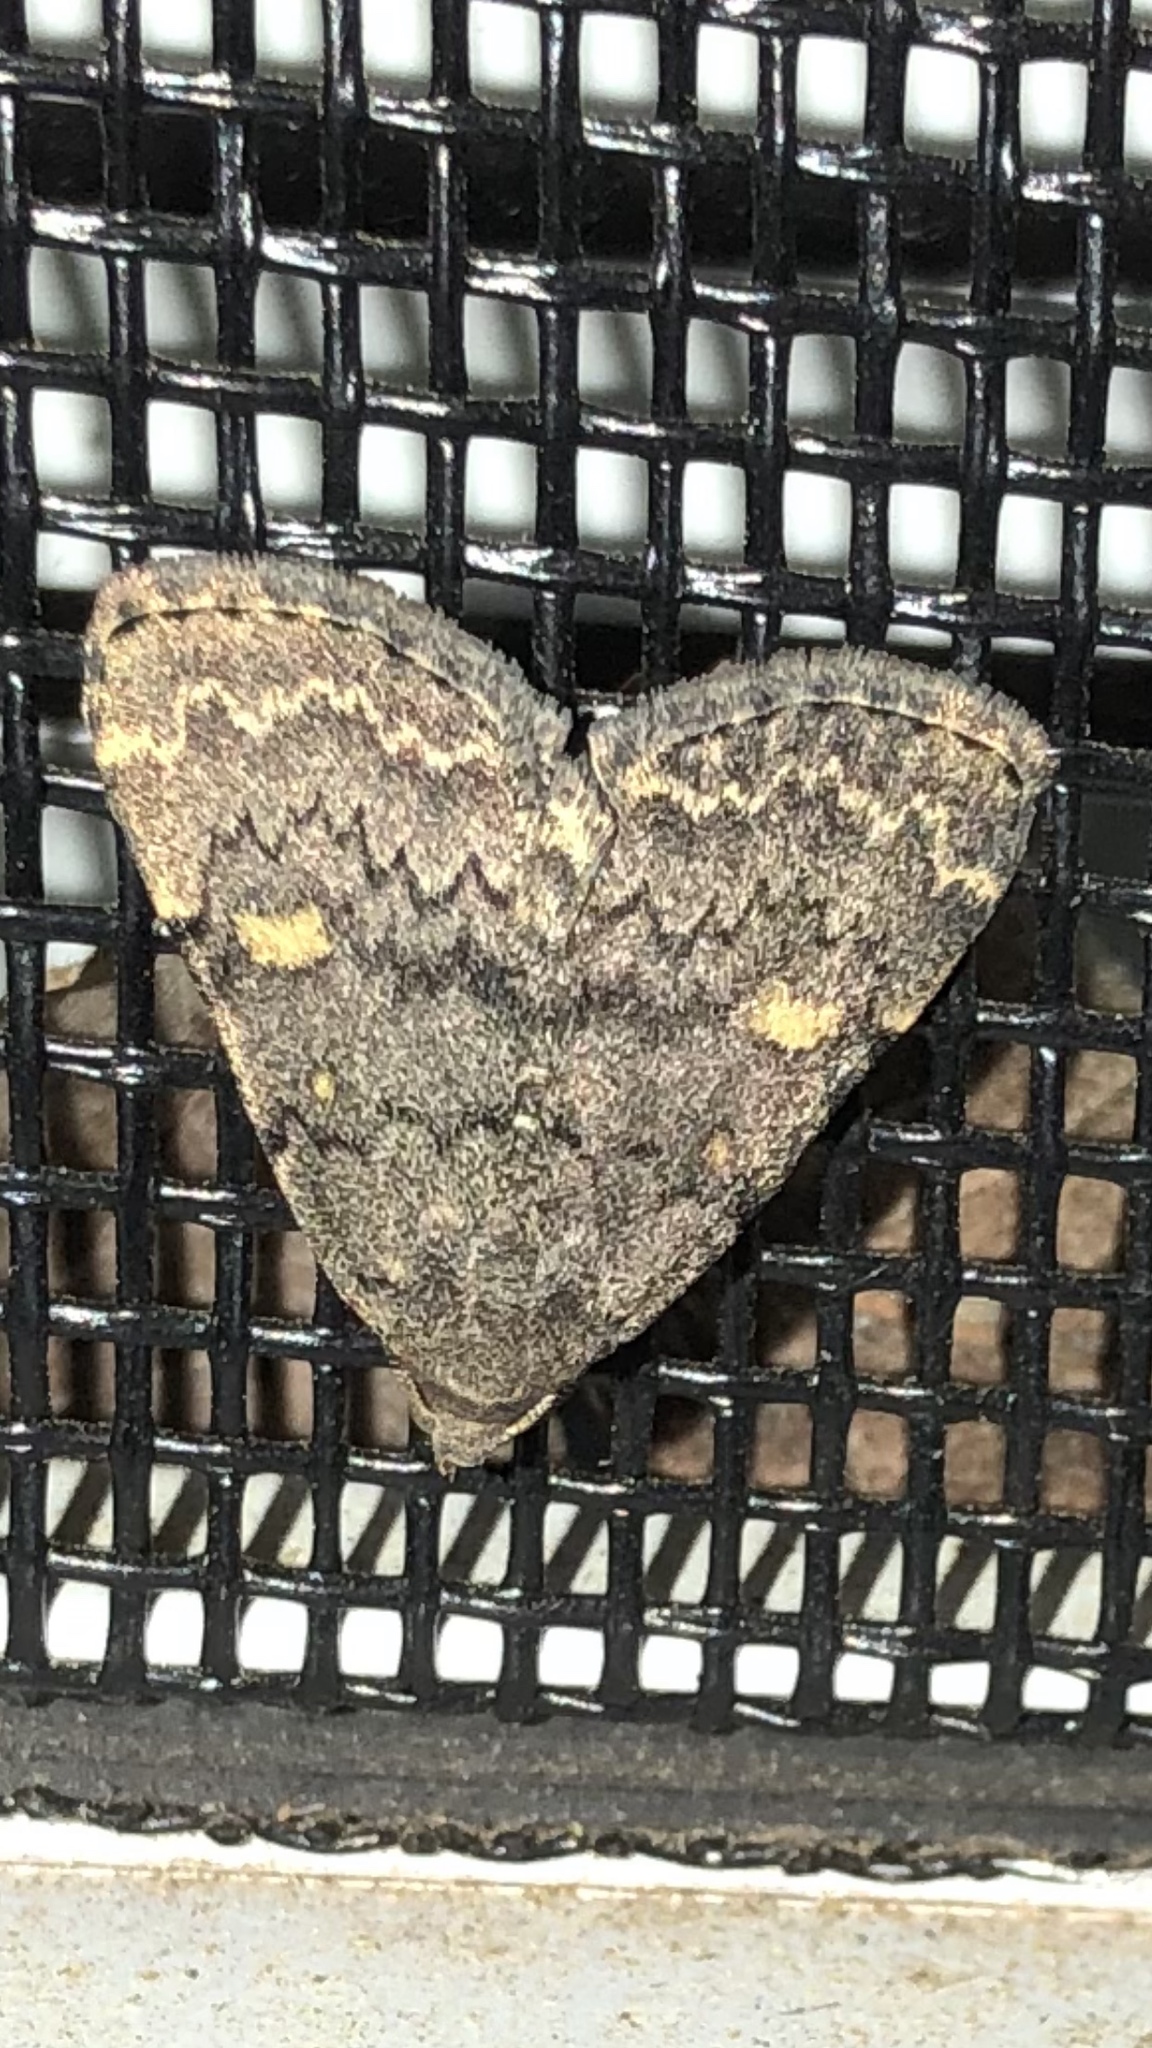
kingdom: Animalia
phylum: Arthropoda
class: Insecta
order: Lepidoptera
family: Erebidae
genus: Idia
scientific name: Idia aemula
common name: Common idia moth
